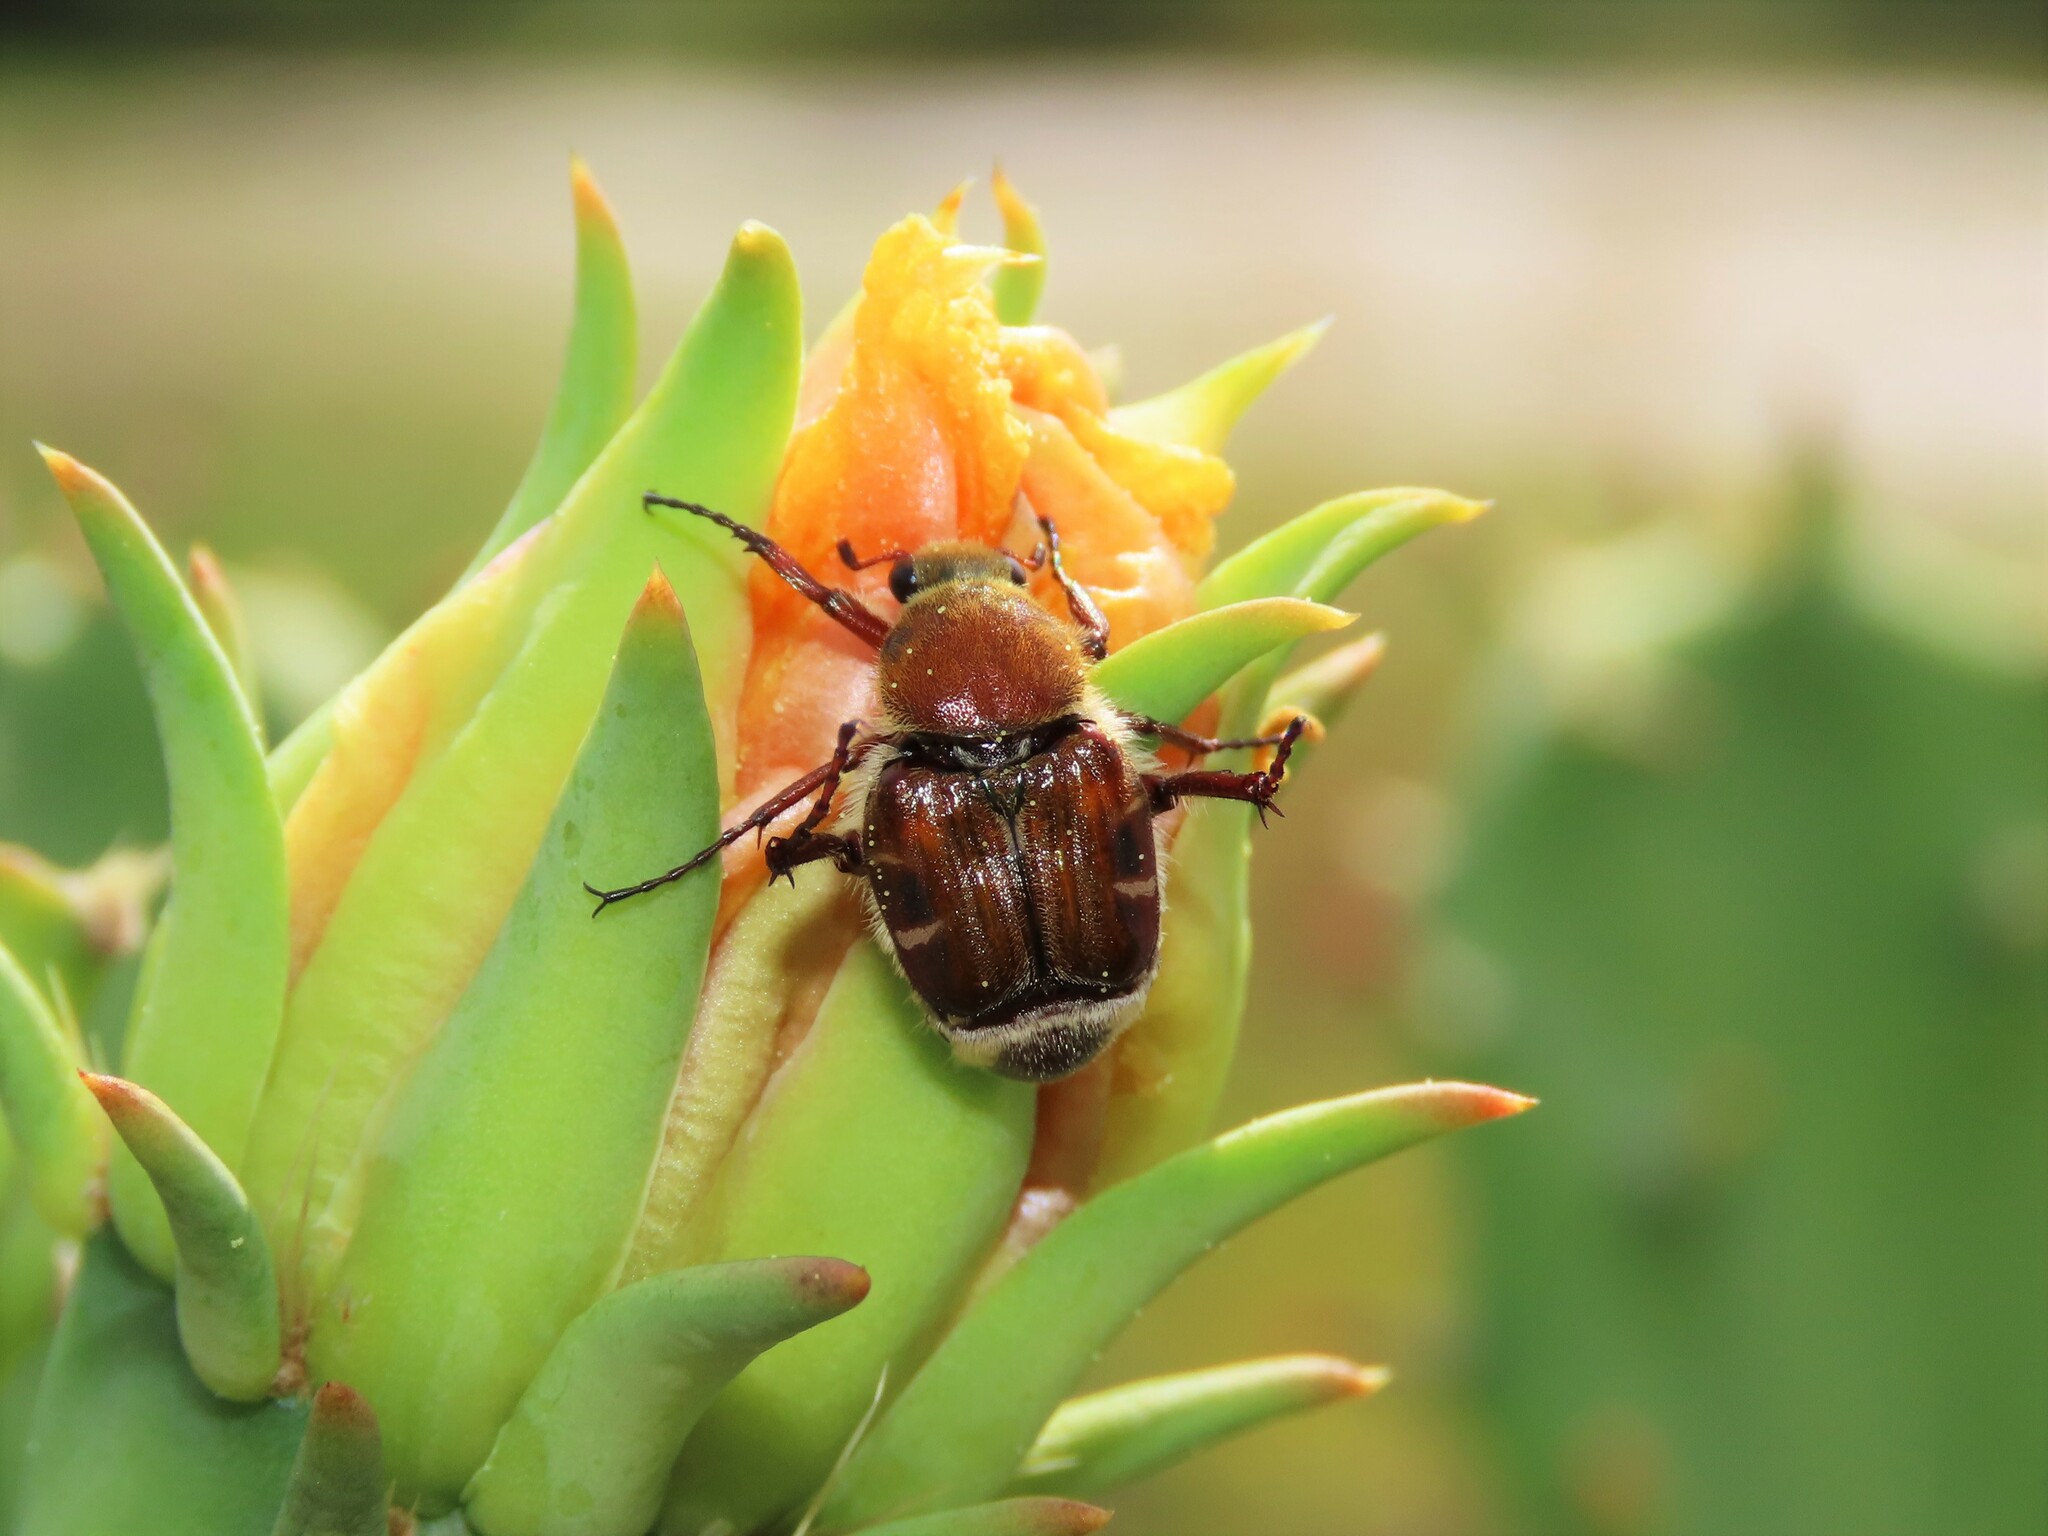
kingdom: Animalia
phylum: Arthropoda
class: Insecta
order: Coleoptera
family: Scarabaeidae
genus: Trichiotinus
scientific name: Trichiotinus rufobrunneus
